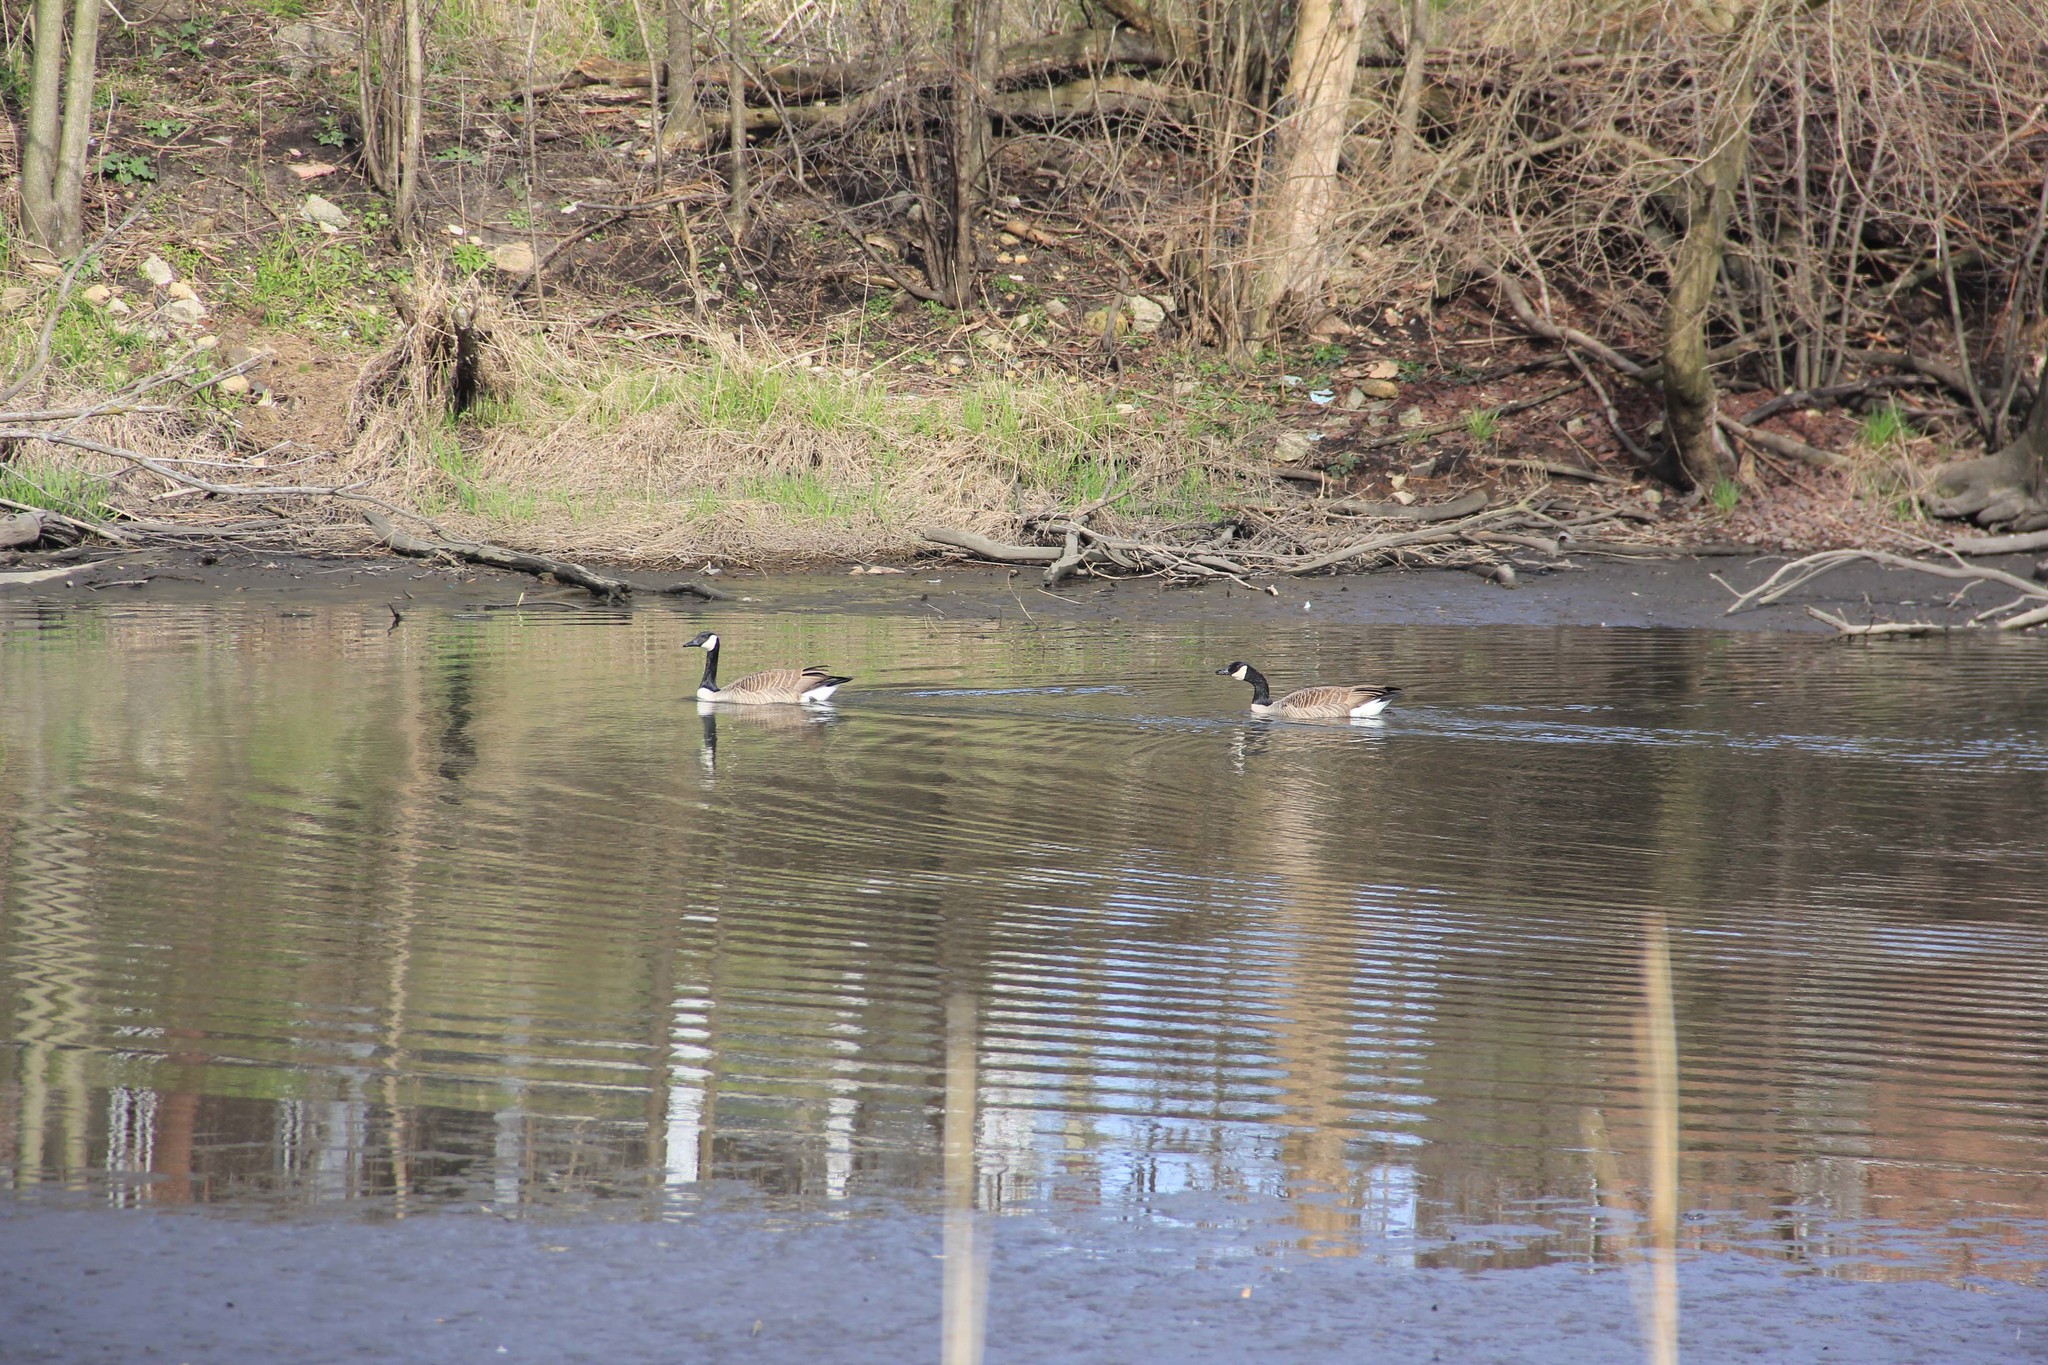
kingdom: Animalia
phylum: Chordata
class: Aves
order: Anseriformes
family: Anatidae
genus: Branta
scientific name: Branta canadensis
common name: Canada goose
